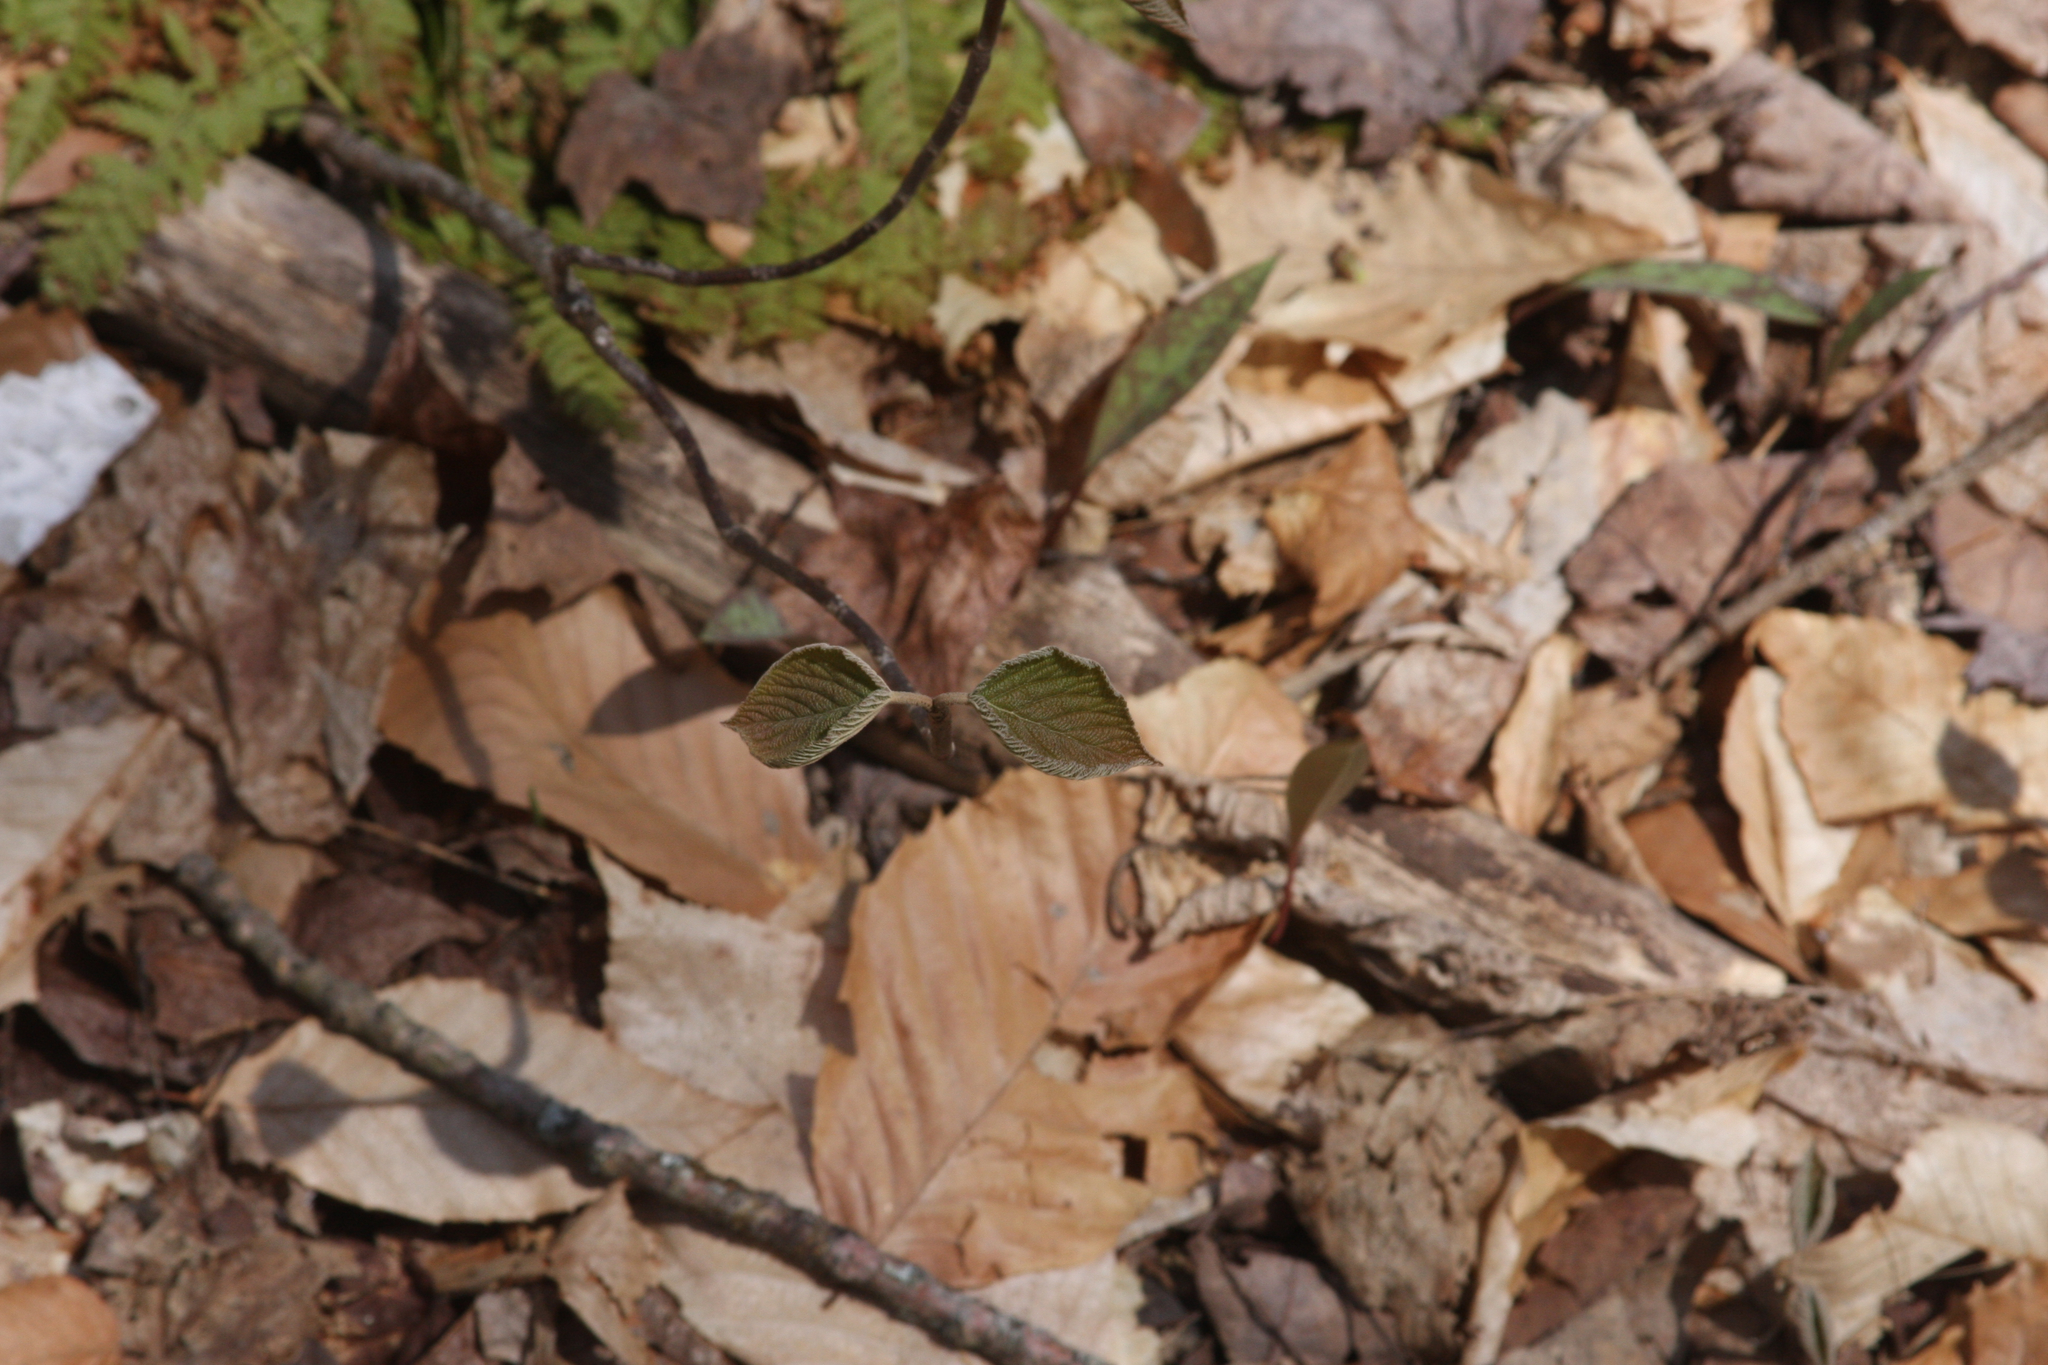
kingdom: Plantae
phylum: Tracheophyta
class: Magnoliopsida
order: Dipsacales
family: Viburnaceae
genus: Viburnum
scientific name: Viburnum lantanoides
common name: Hobblebush
